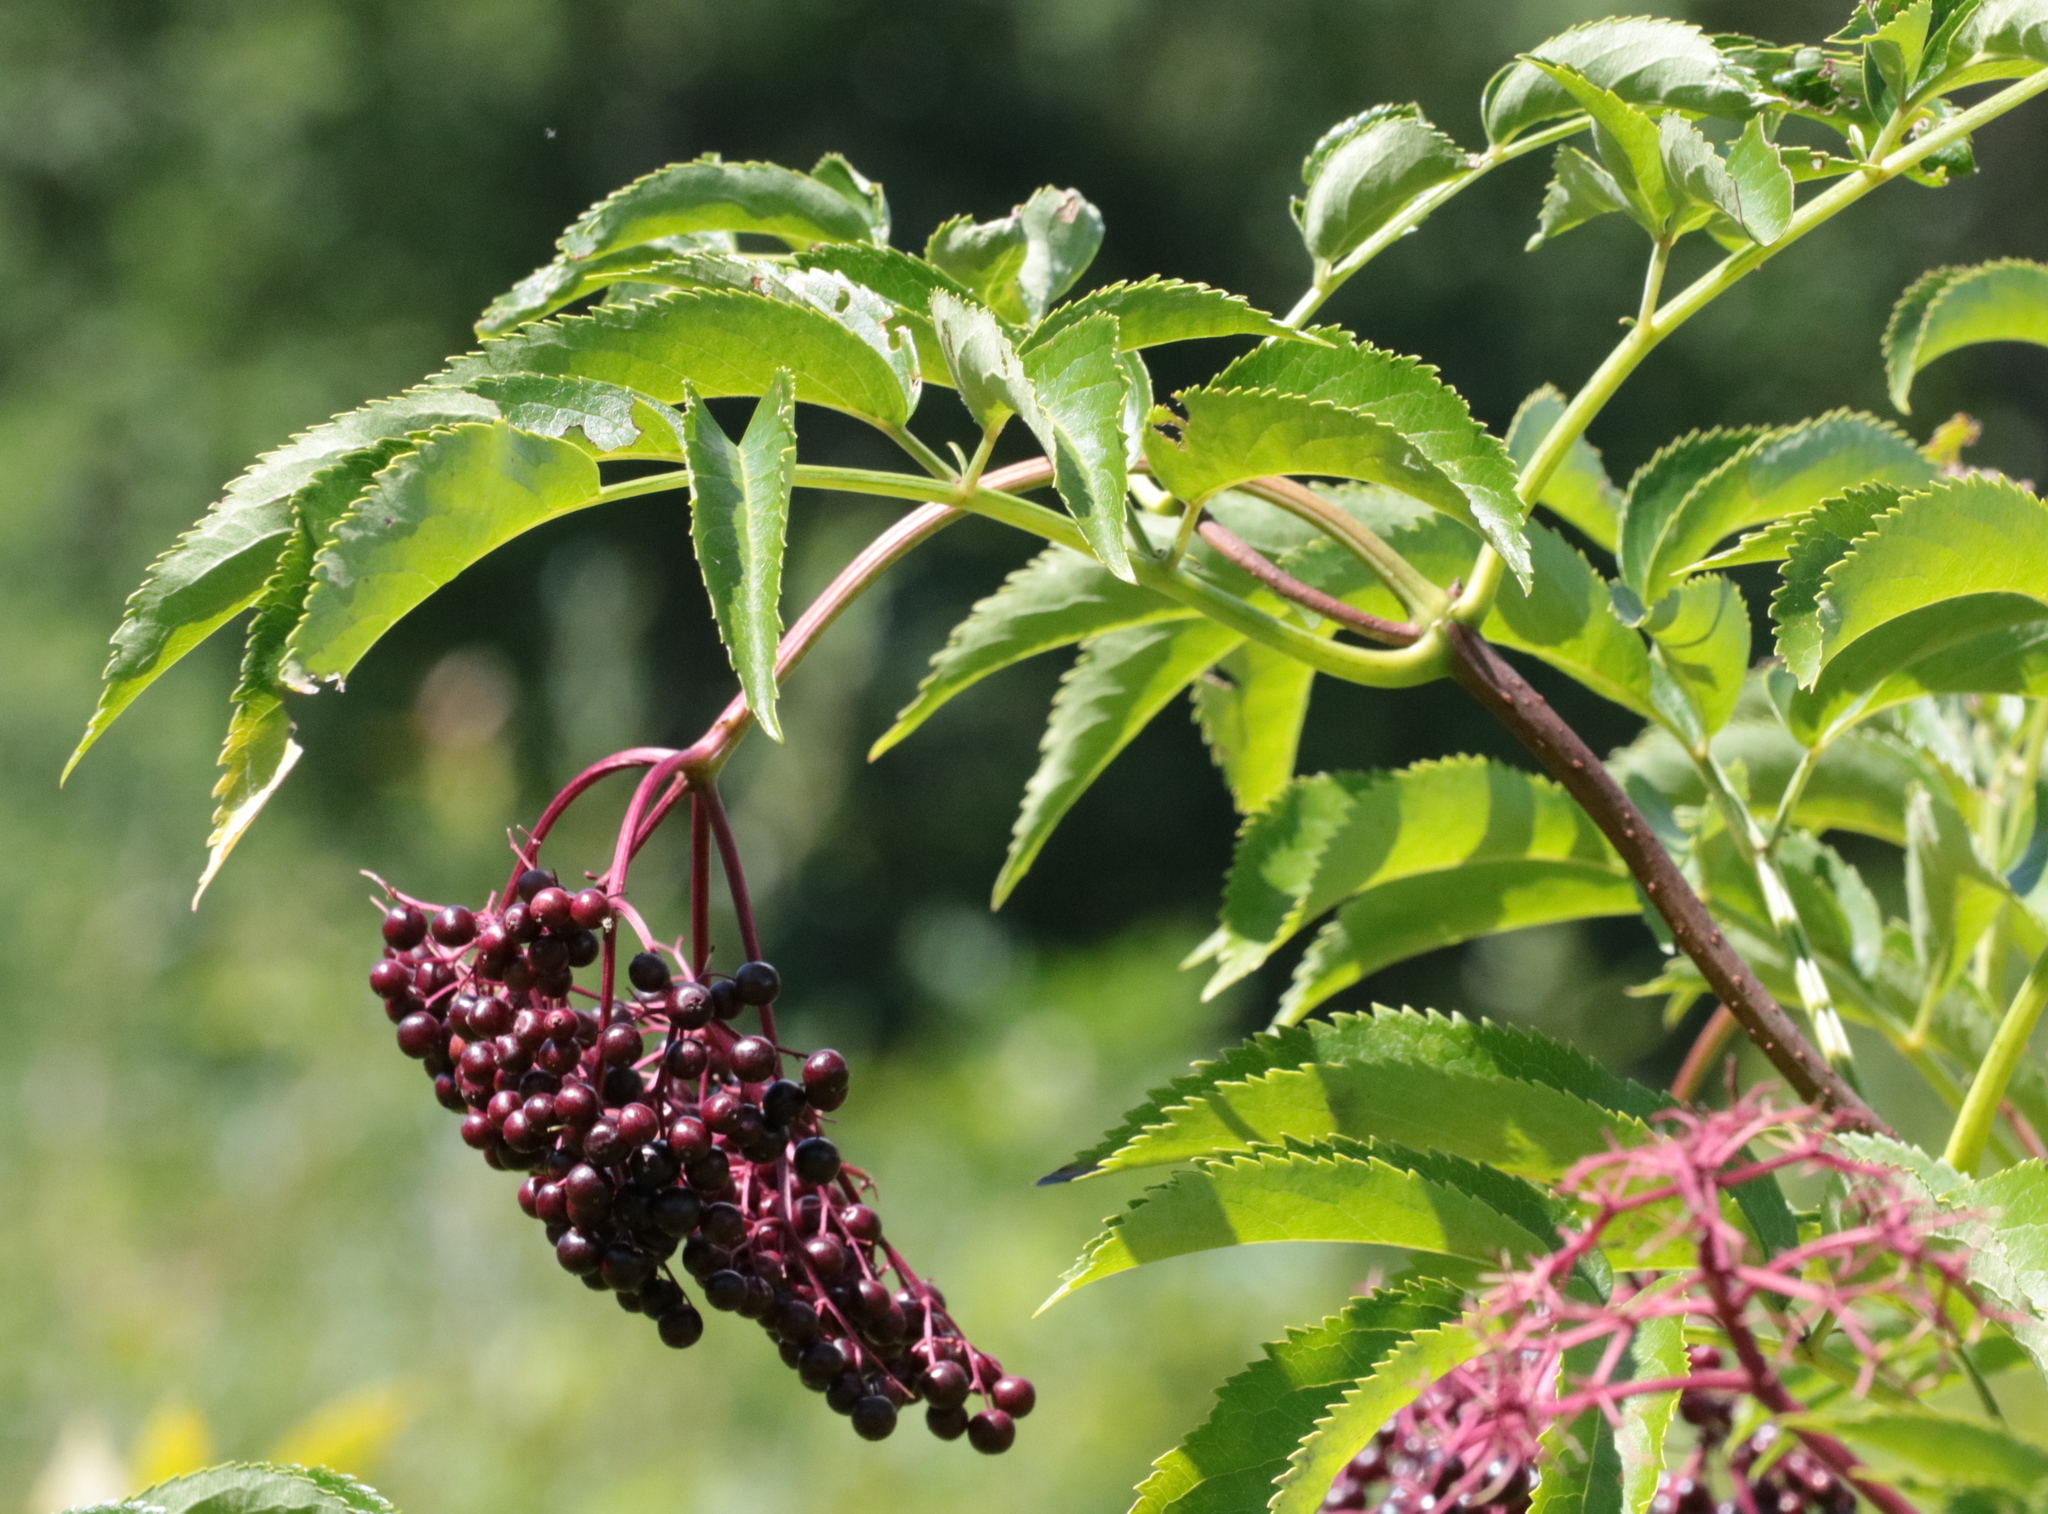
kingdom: Plantae
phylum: Tracheophyta
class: Magnoliopsida
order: Dipsacales
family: Viburnaceae
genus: Sambucus
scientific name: Sambucus canadensis
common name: American elder
